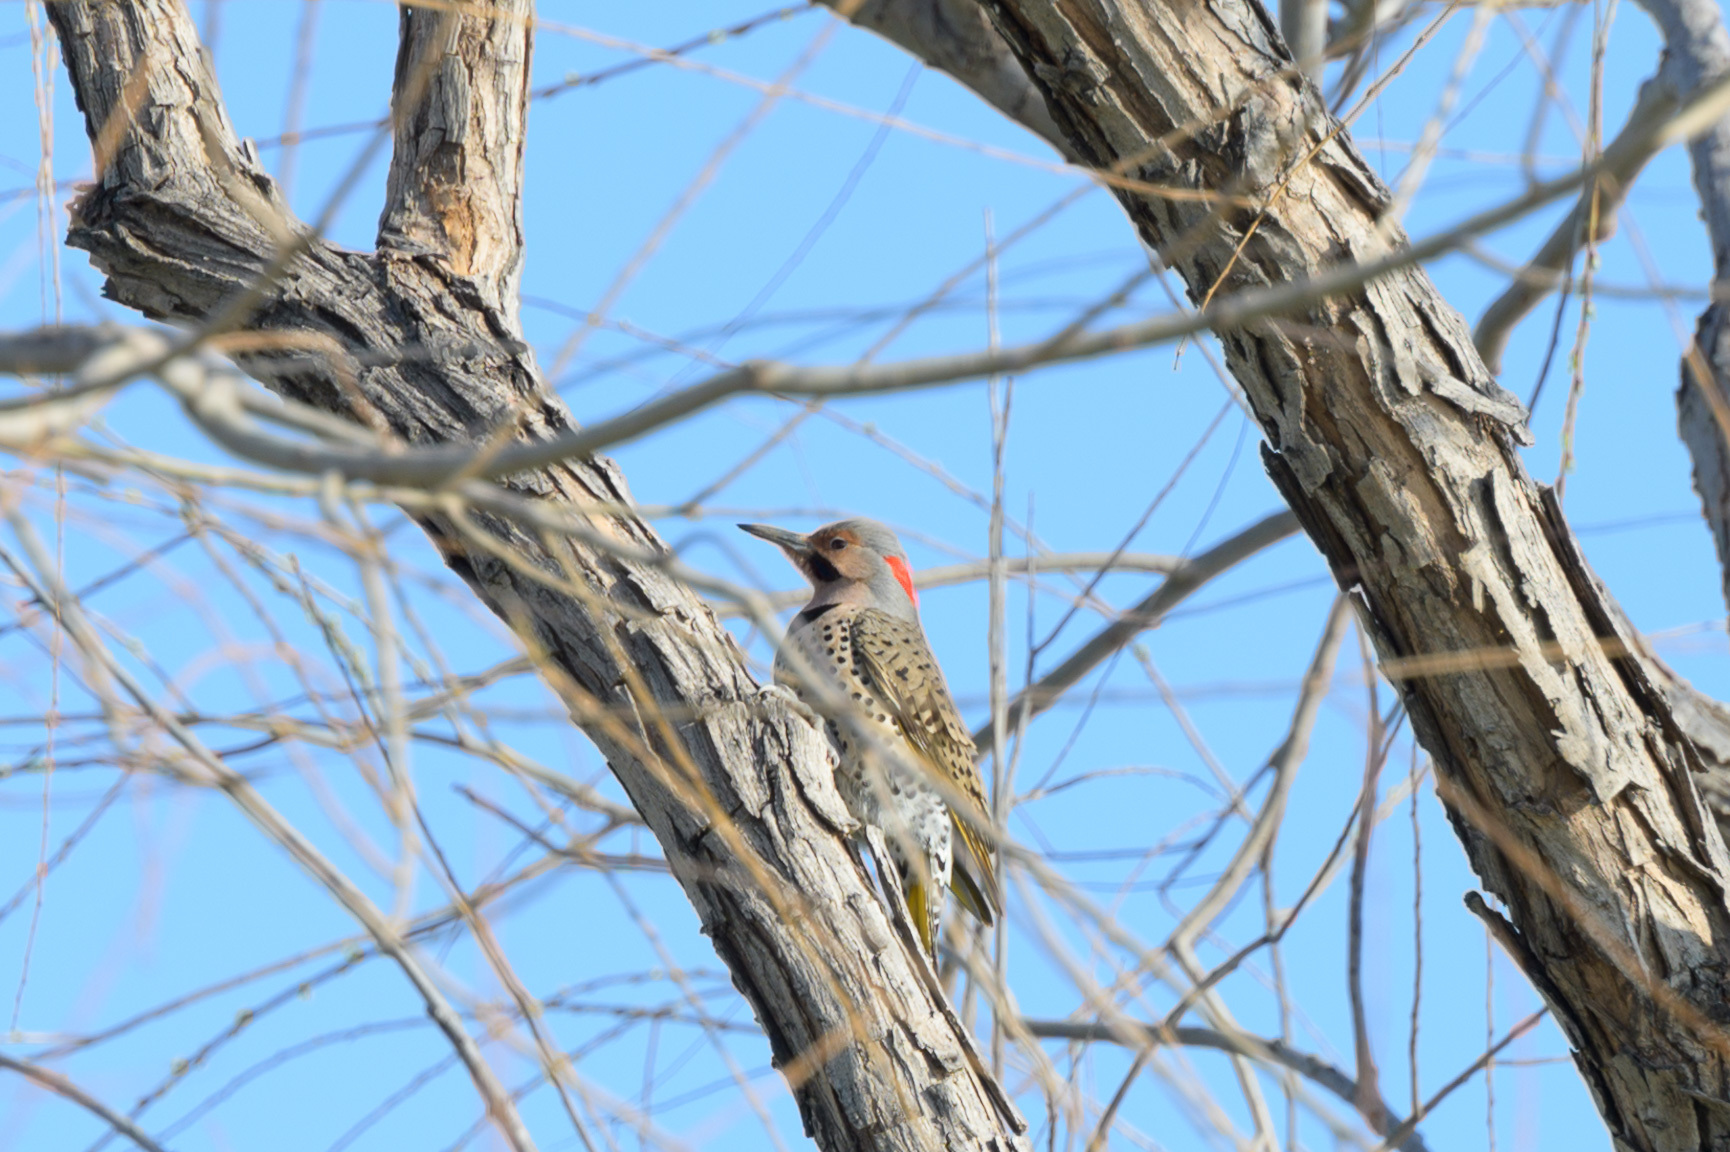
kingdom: Animalia
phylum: Chordata
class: Aves
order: Piciformes
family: Picidae
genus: Colaptes
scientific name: Colaptes auratus
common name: Northern flicker
